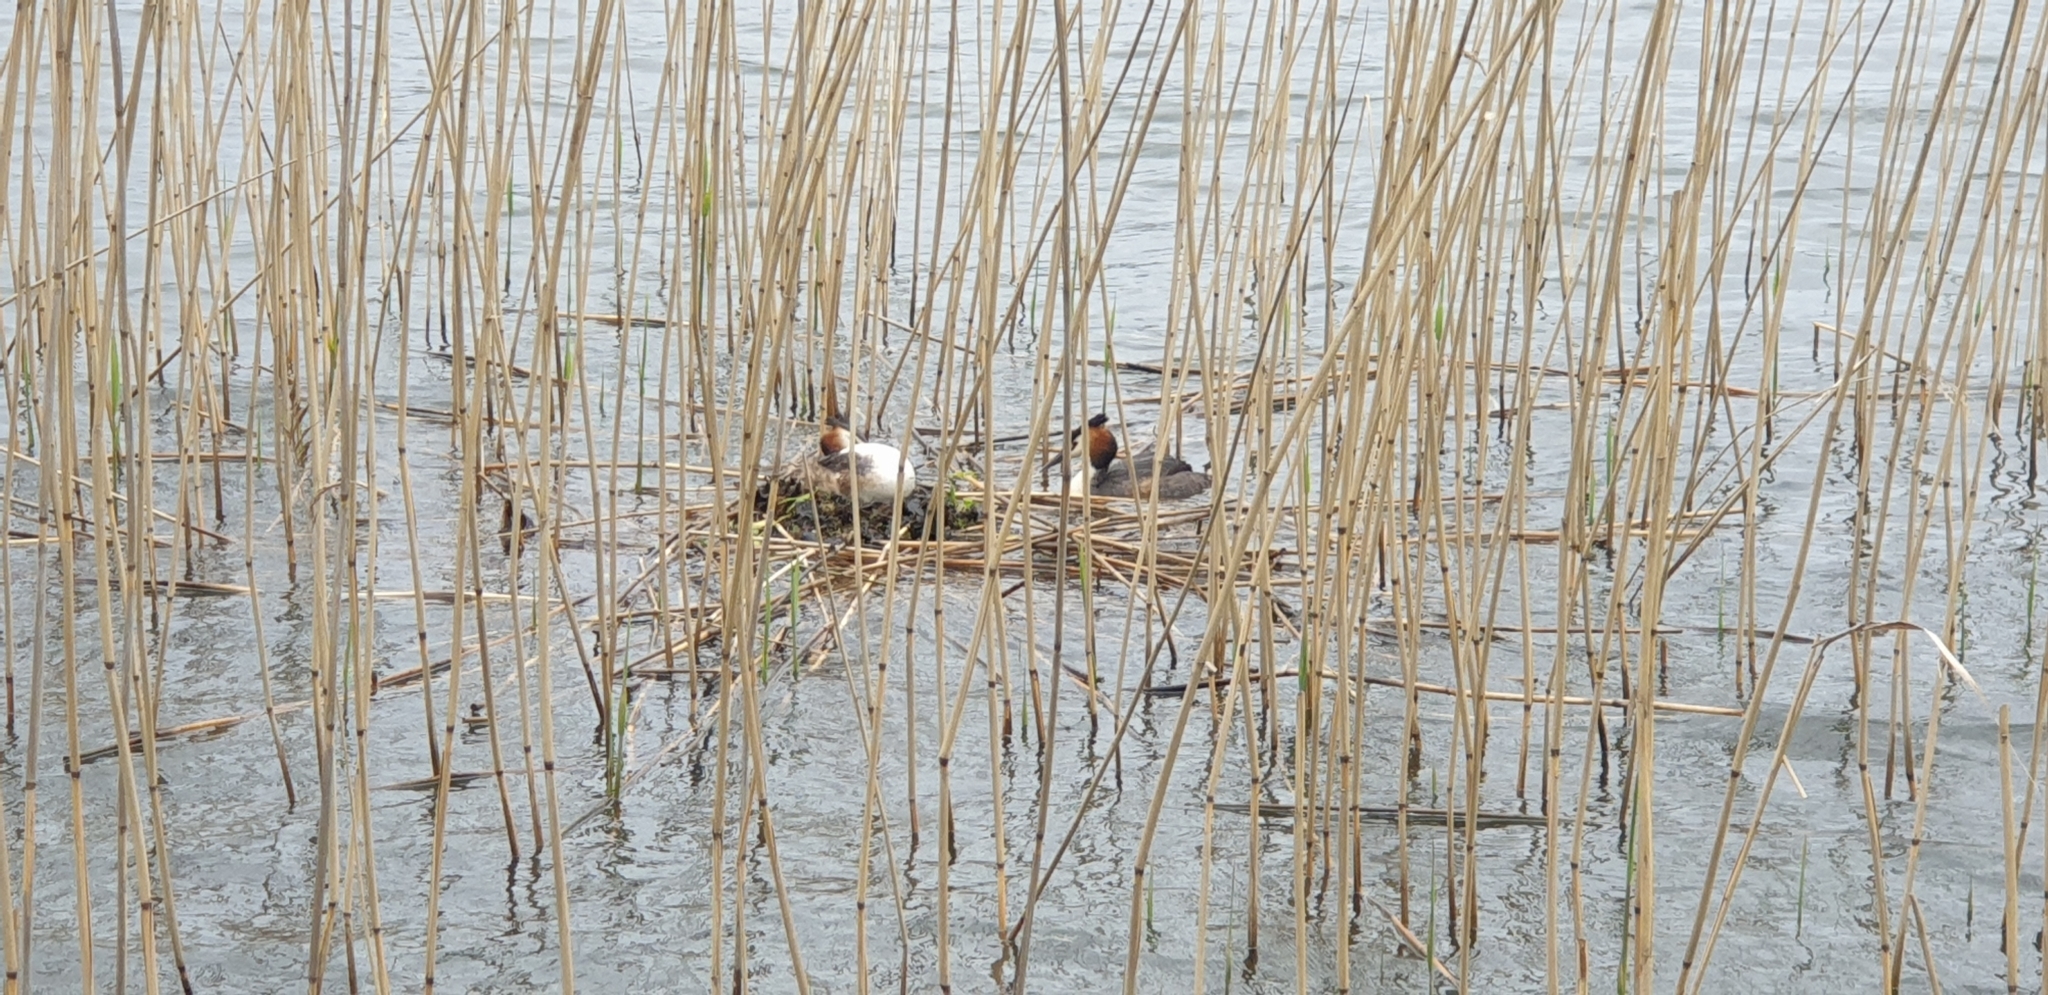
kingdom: Animalia
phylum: Chordata
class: Aves
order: Podicipediformes
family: Podicipedidae
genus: Podiceps
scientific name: Podiceps cristatus
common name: Great crested grebe
